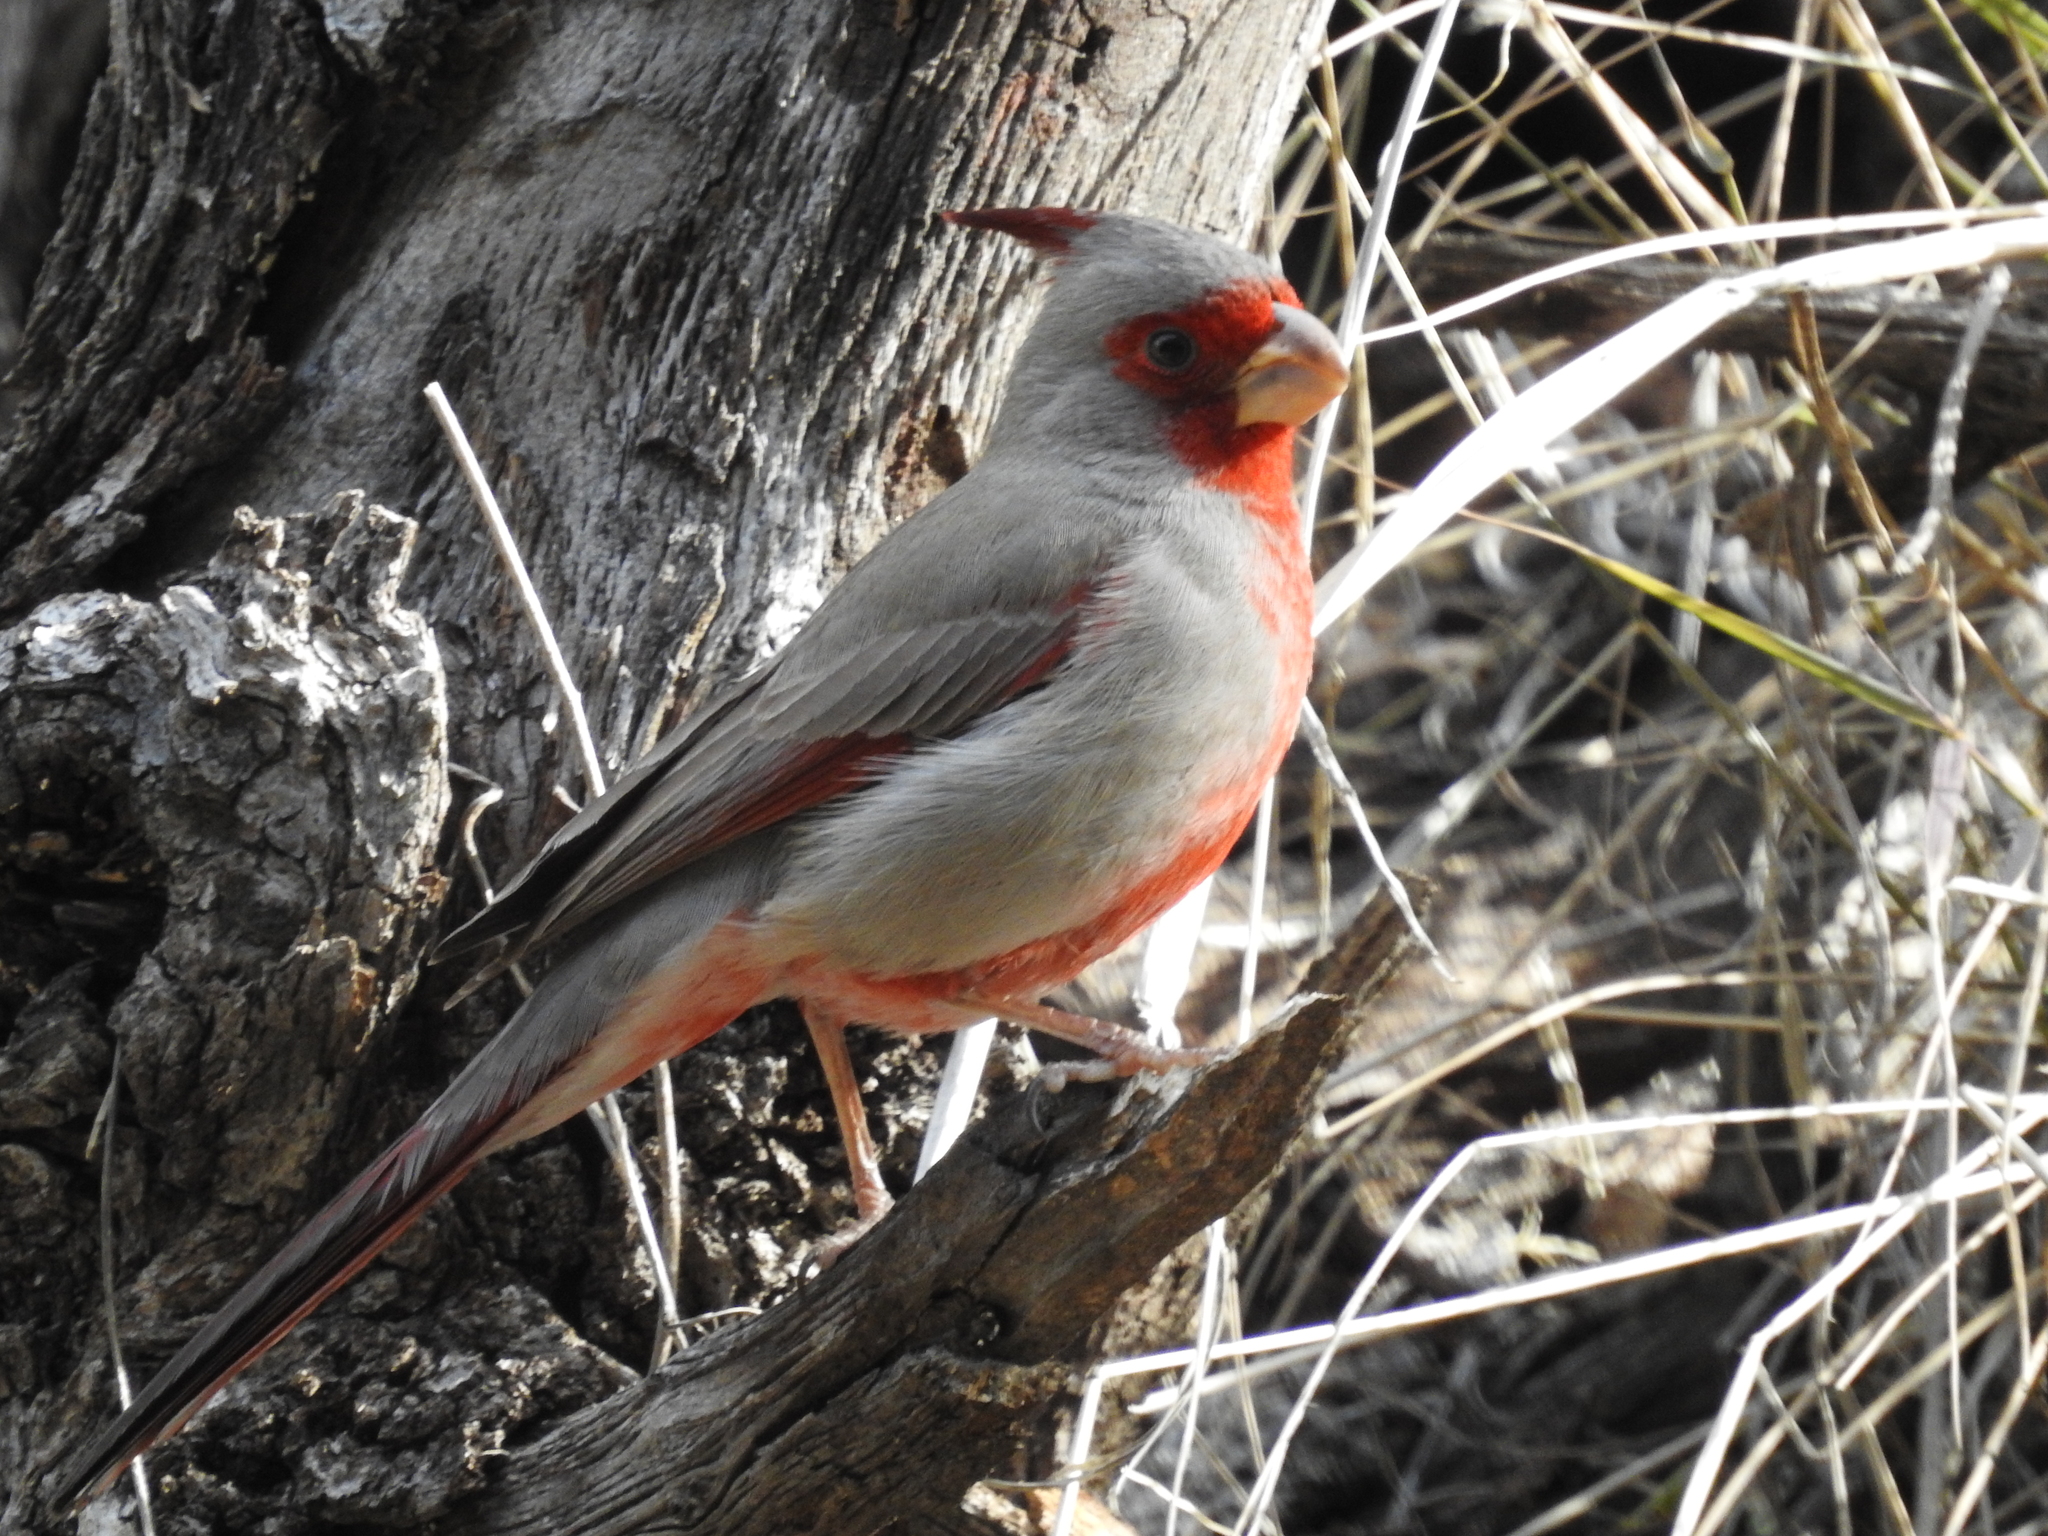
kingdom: Animalia
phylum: Chordata
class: Aves
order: Passeriformes
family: Cardinalidae
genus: Cardinalis
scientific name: Cardinalis sinuatus
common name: Pyrrhuloxia
